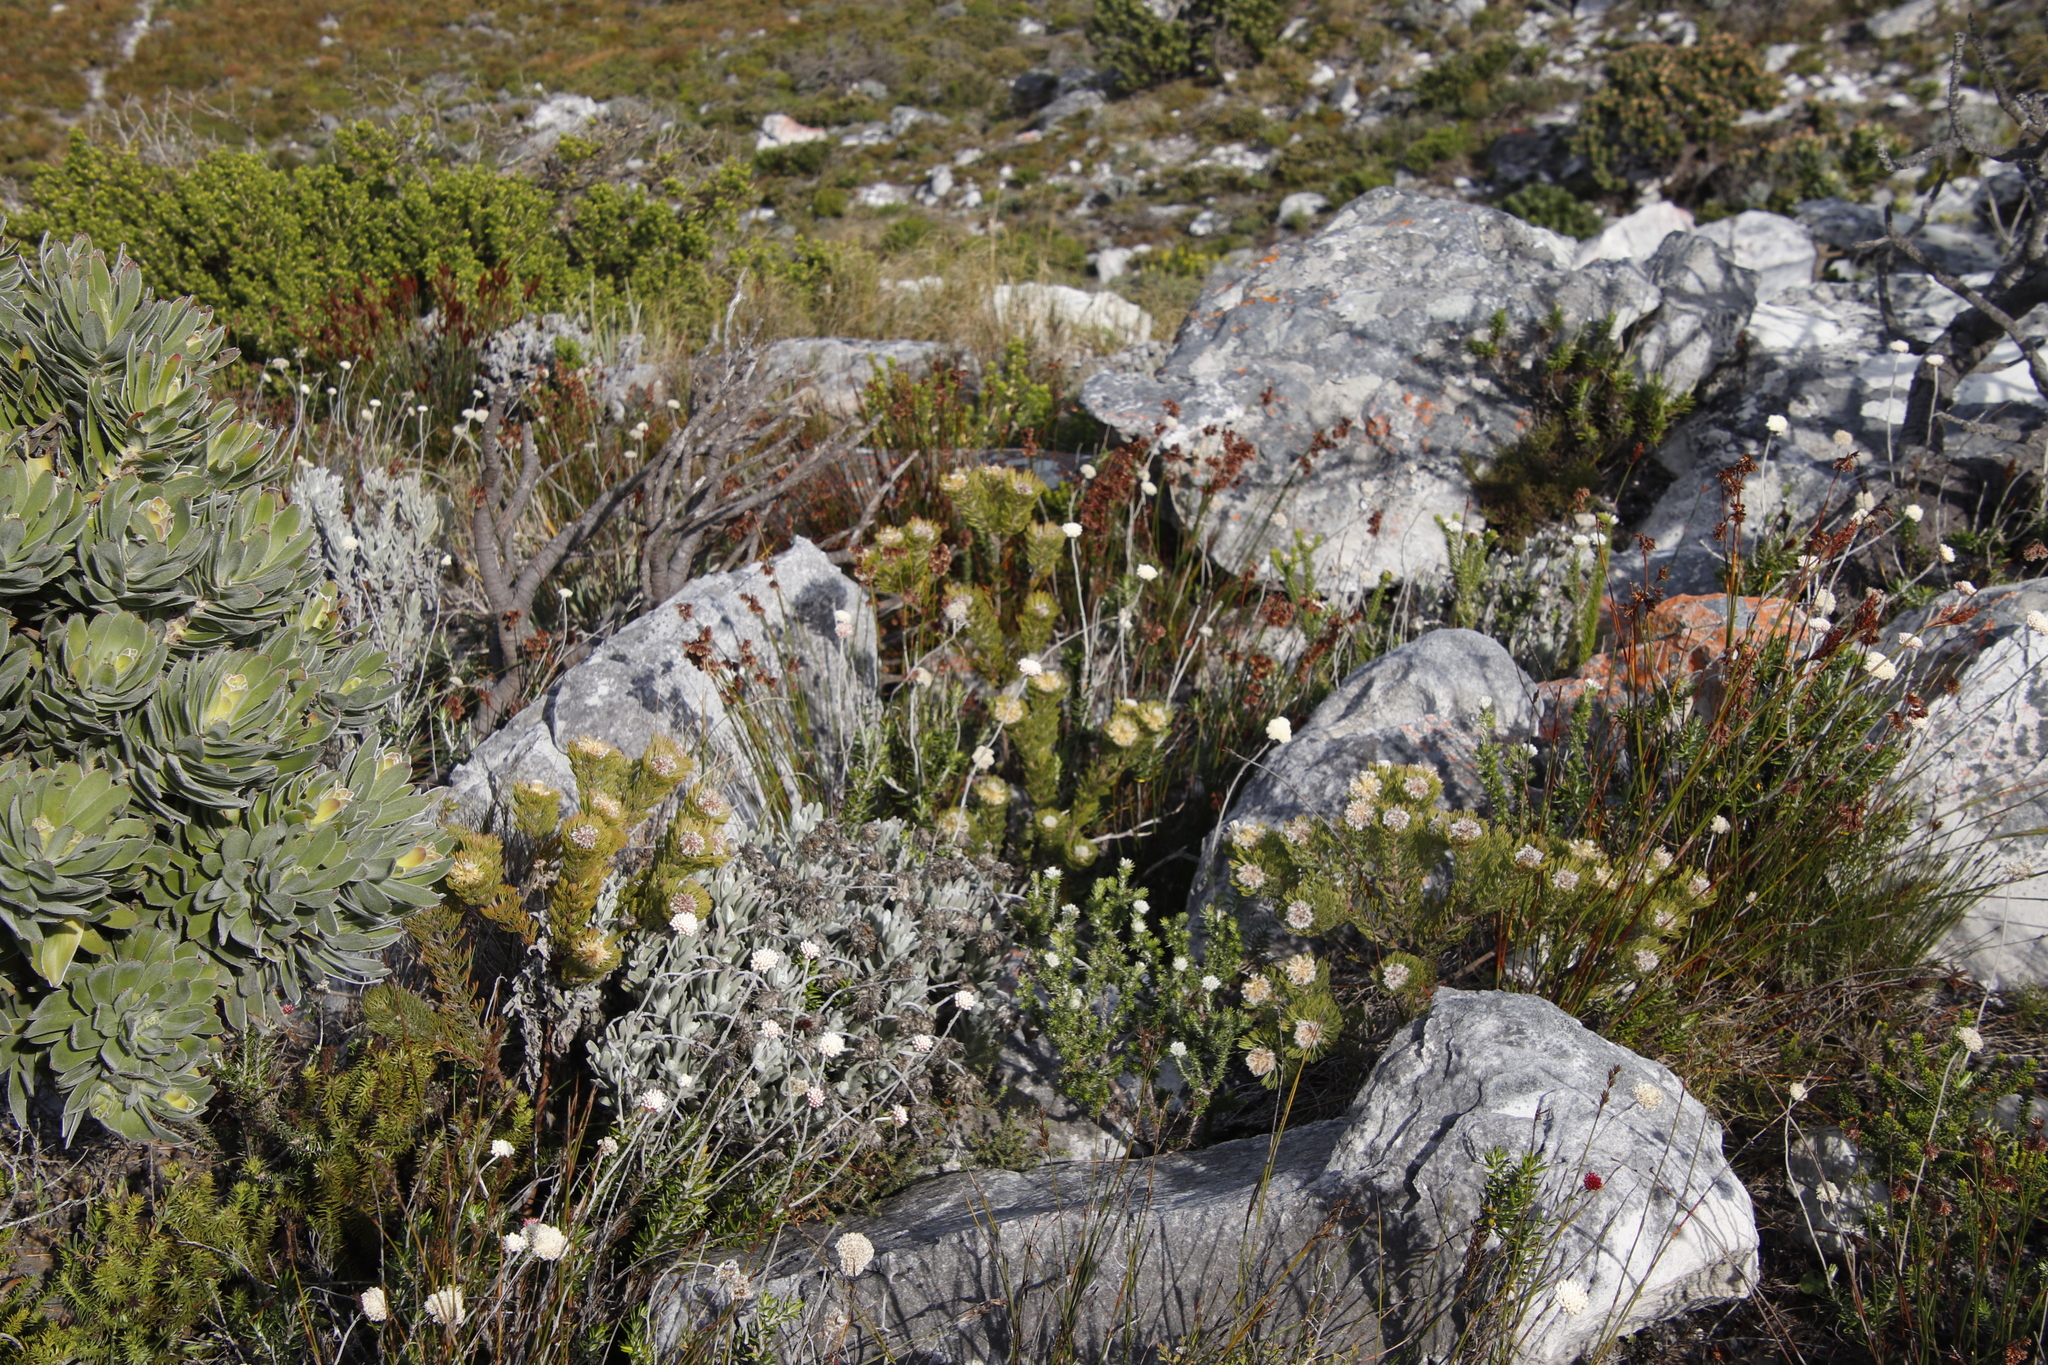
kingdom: Plantae
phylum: Tracheophyta
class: Magnoliopsida
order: Proteales
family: Proteaceae
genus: Serruria
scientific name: Serruria villosa
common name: Golden spiderhead
